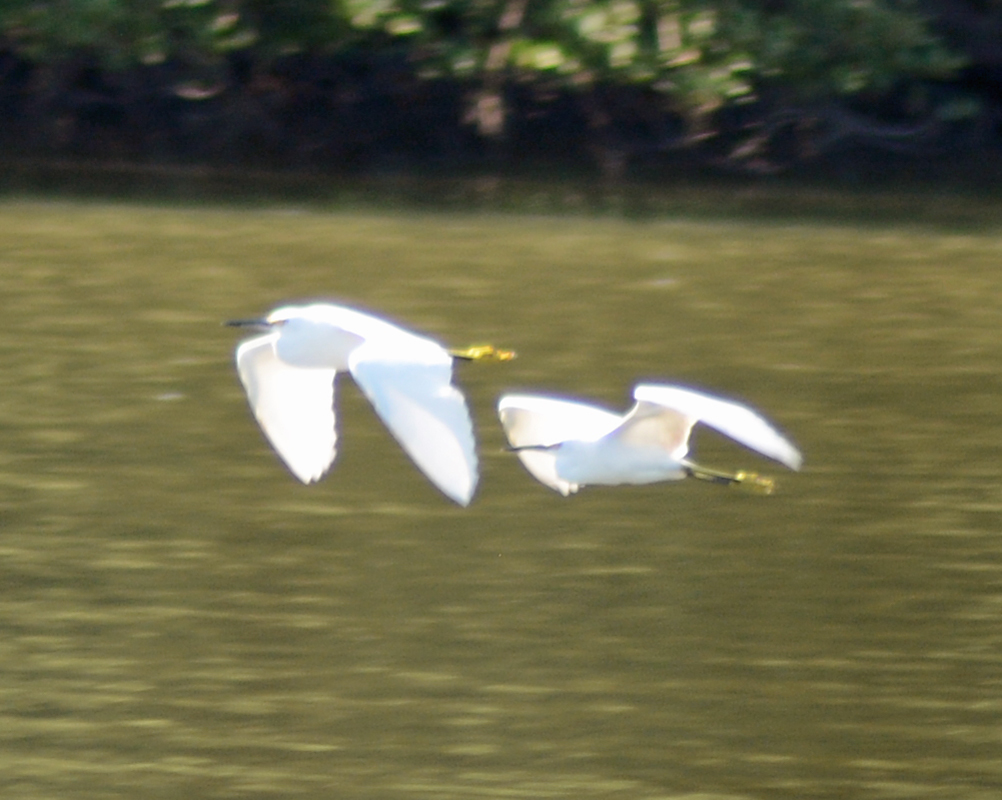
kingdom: Animalia
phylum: Chordata
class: Aves
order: Pelecaniformes
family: Ardeidae
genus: Egretta
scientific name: Egretta thula
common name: Snowy egret
